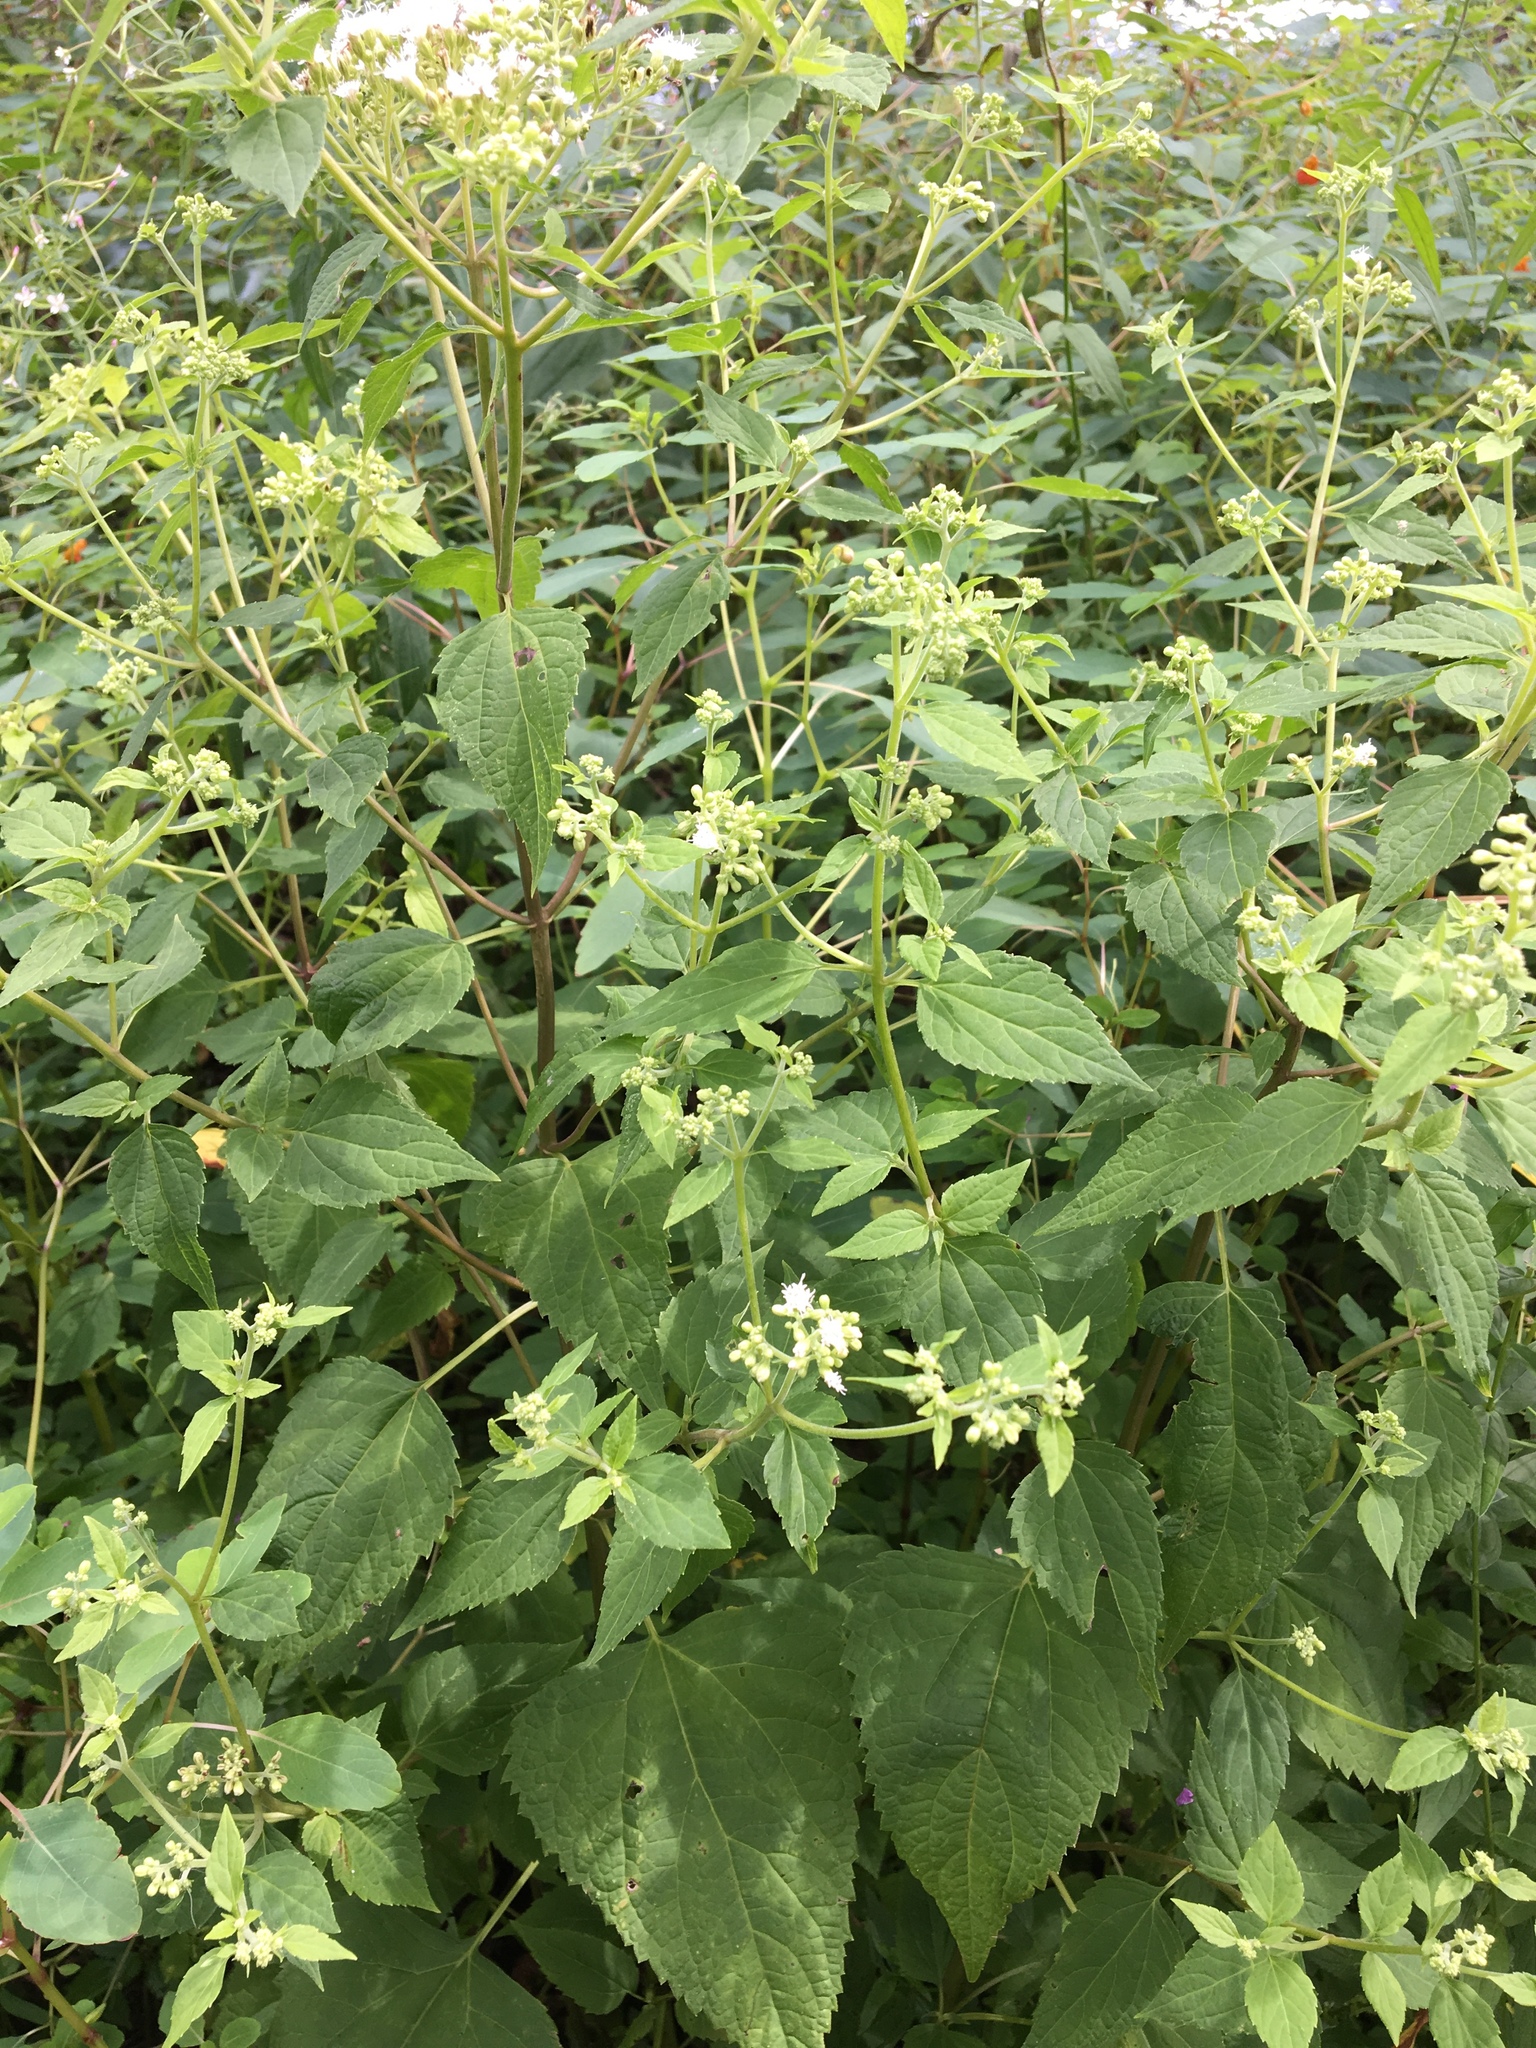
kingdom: Plantae
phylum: Tracheophyta
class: Magnoliopsida
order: Asterales
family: Asteraceae
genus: Ageratina
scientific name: Ageratina altissima
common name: White snakeroot
